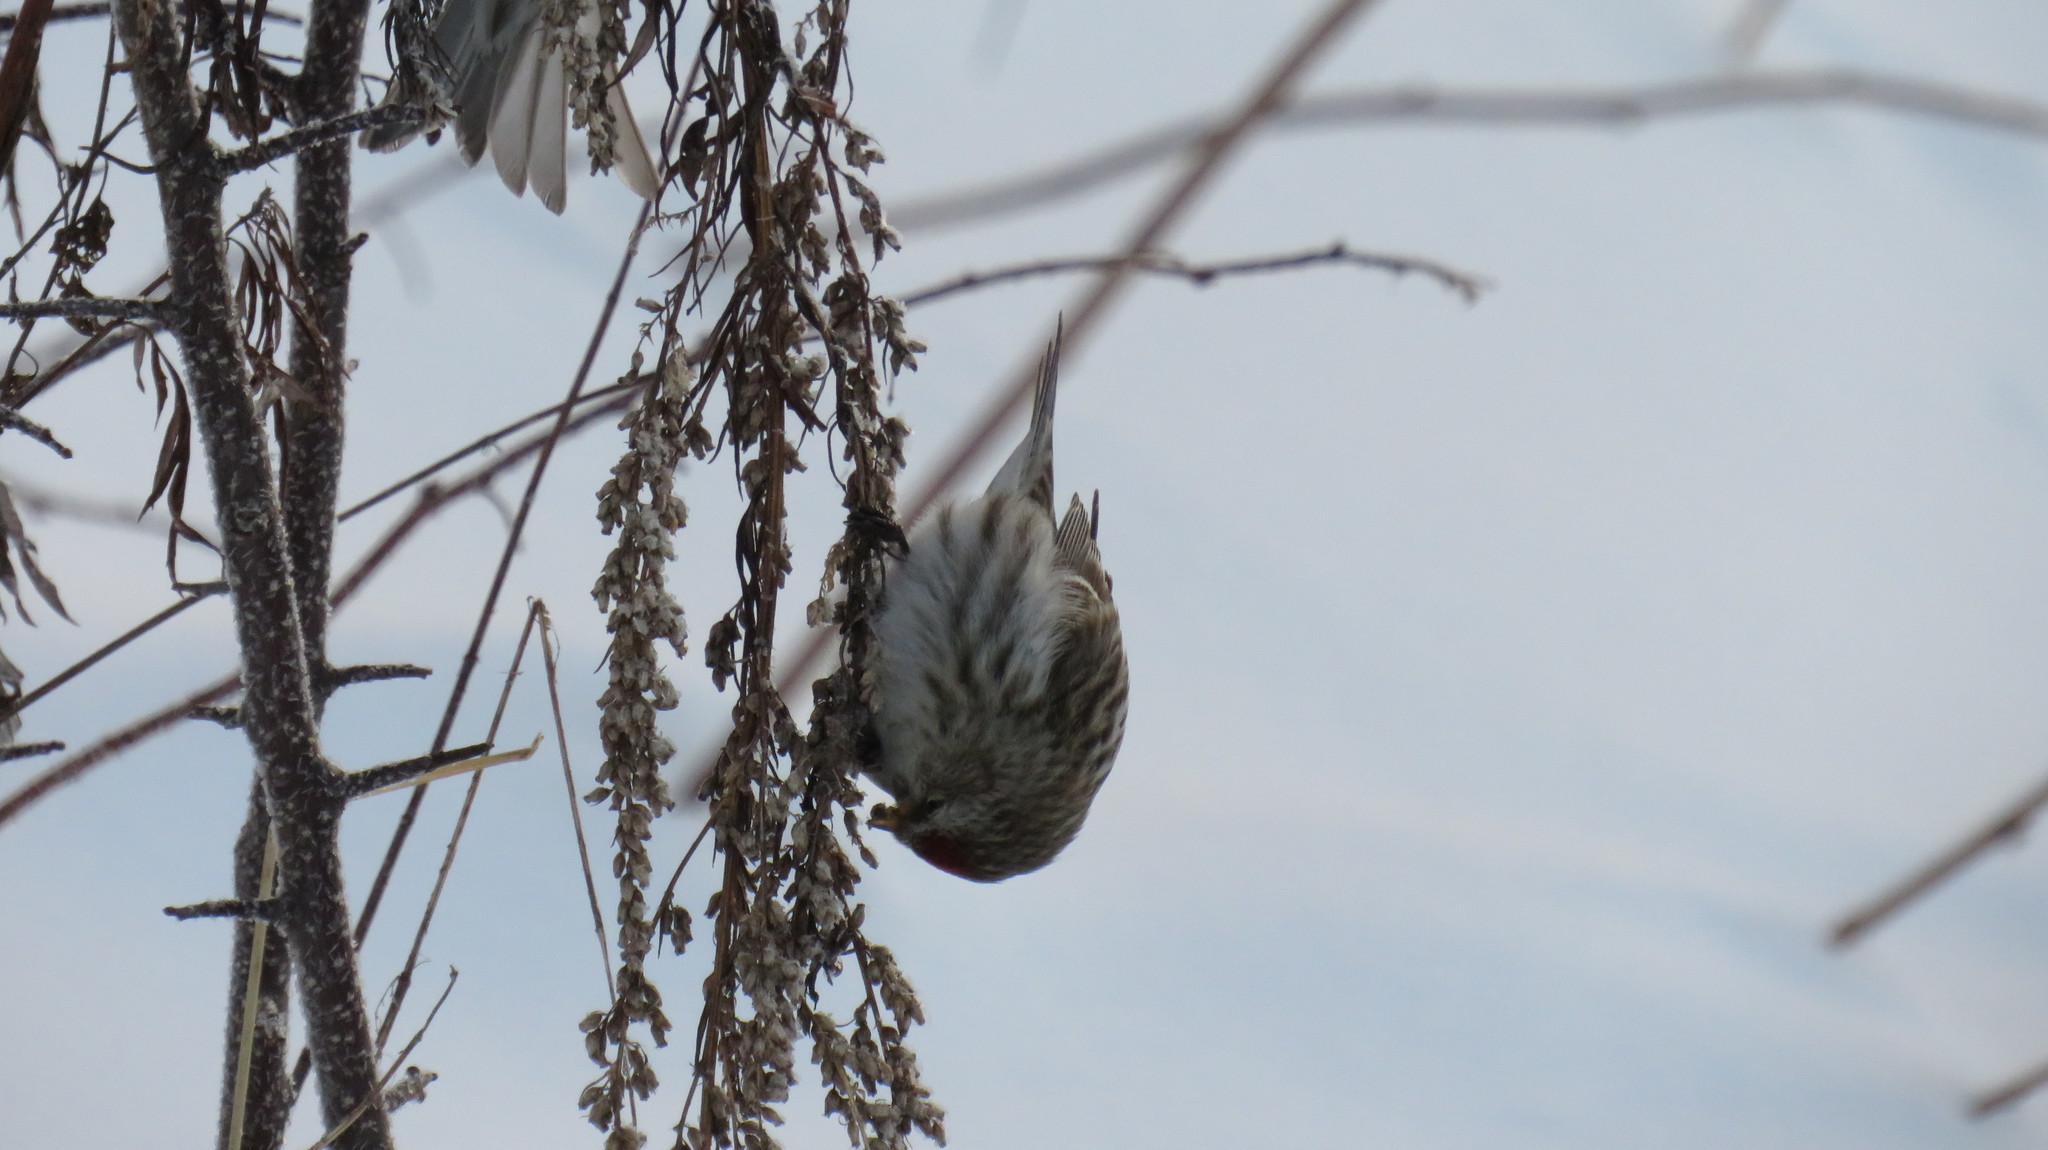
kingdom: Animalia
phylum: Chordata
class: Aves
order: Passeriformes
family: Fringillidae
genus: Acanthis
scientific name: Acanthis flammea
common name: Common redpoll
